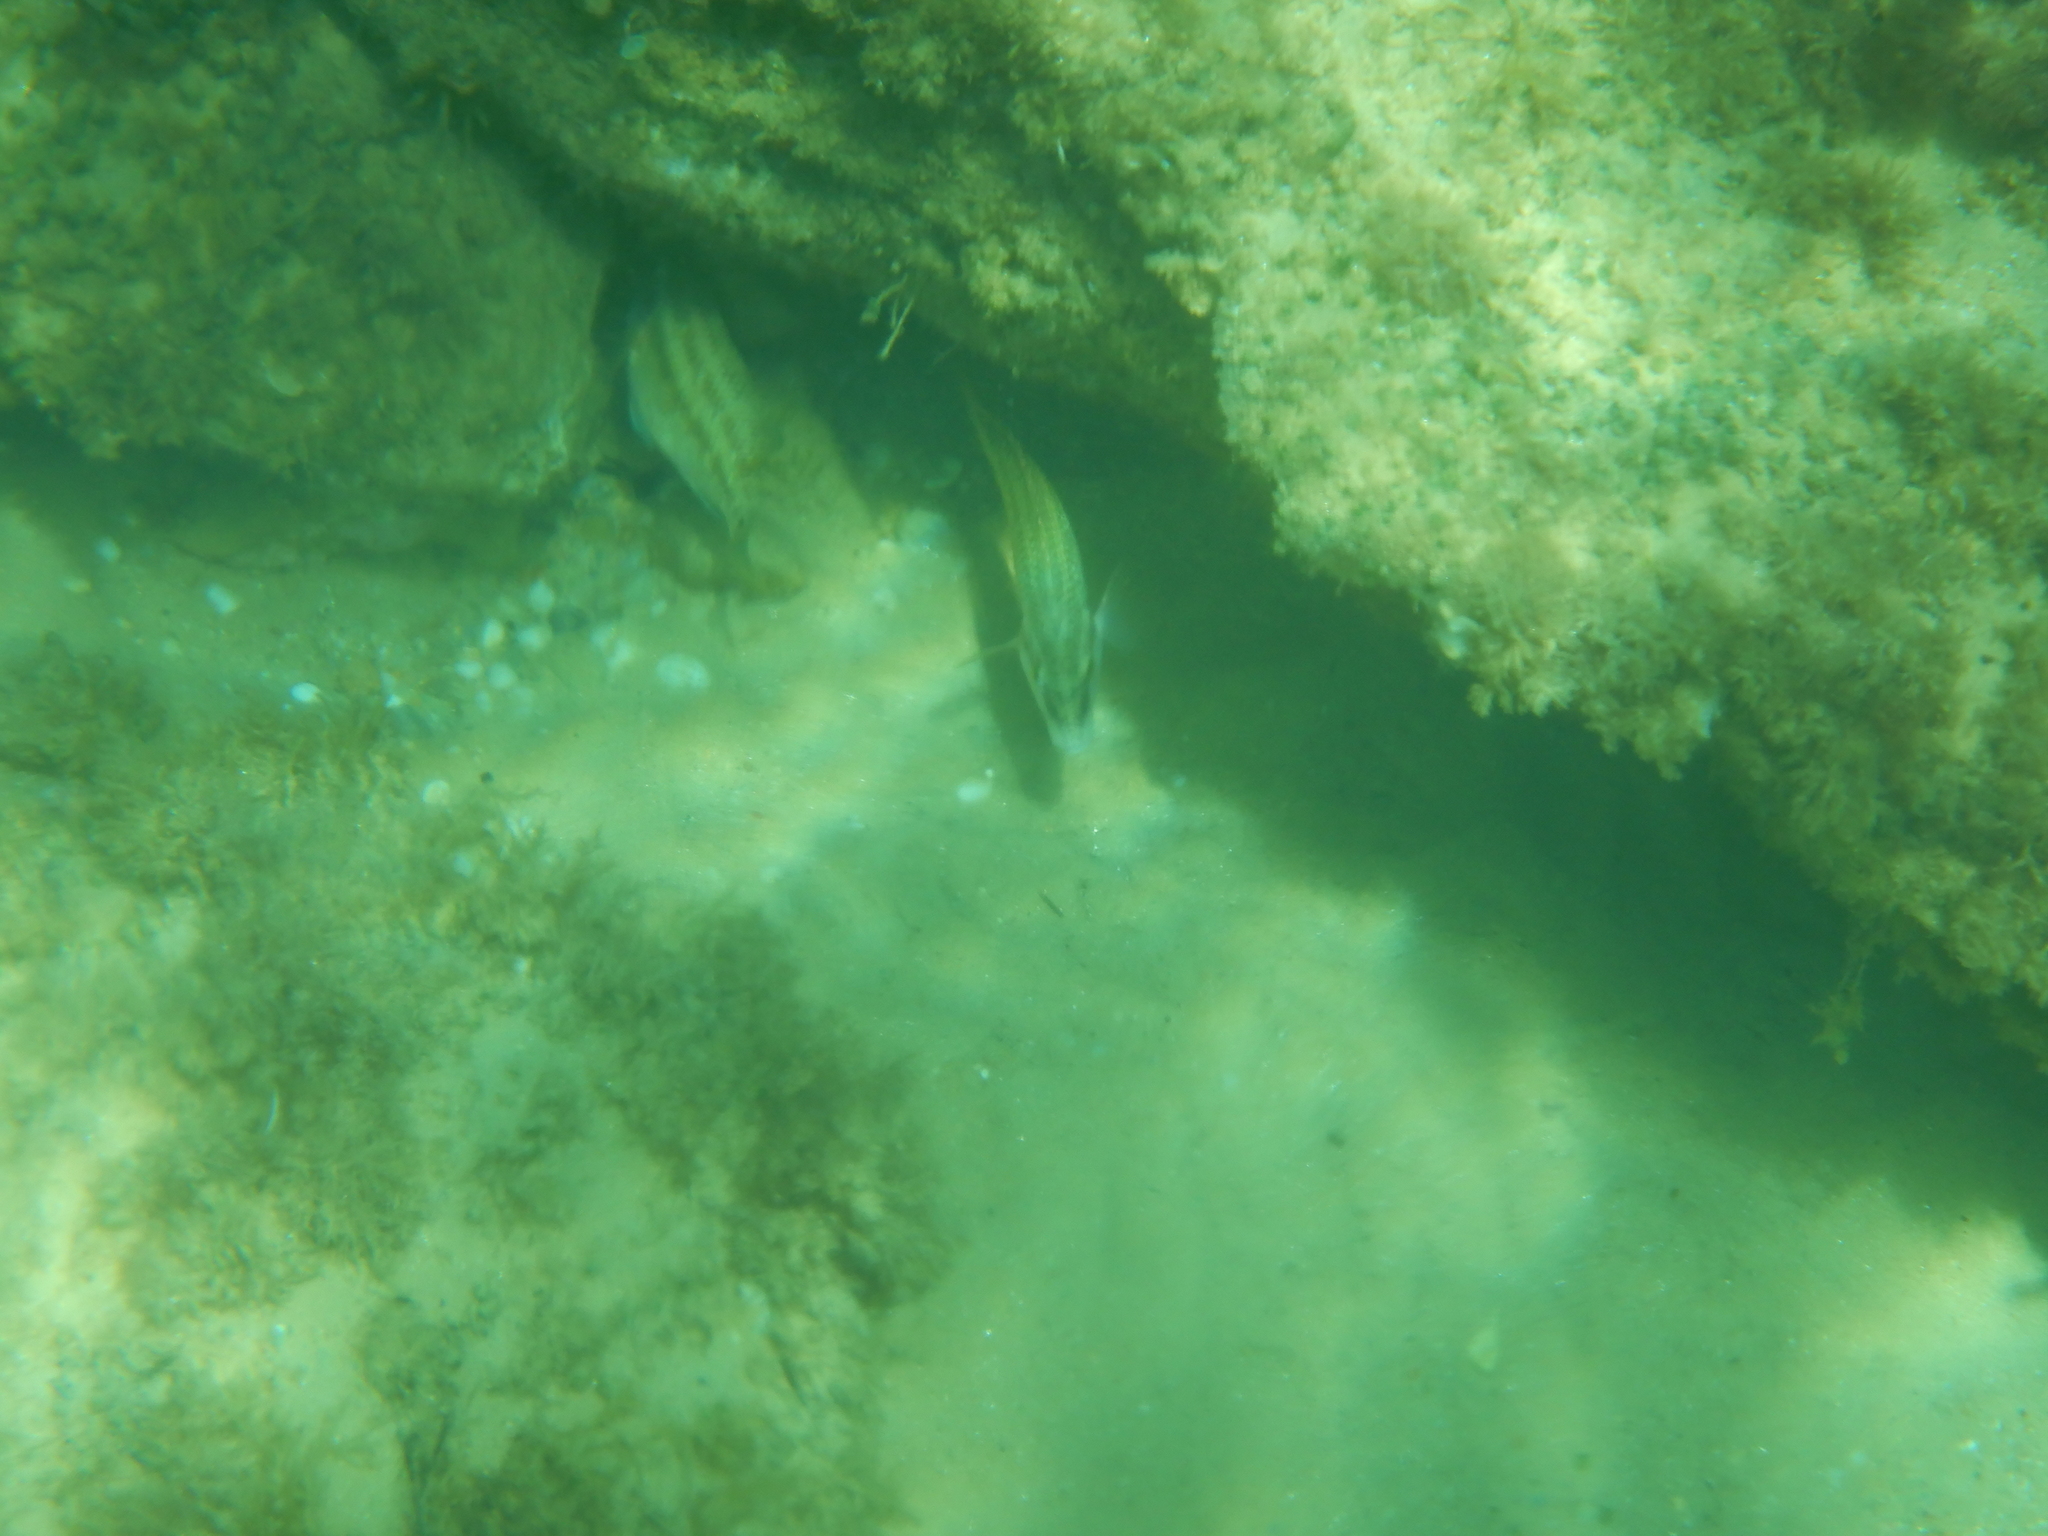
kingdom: Animalia
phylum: Chordata
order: Perciformes
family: Labridae
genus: Symphodus
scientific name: Symphodus tinca
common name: Peacock wrasse
